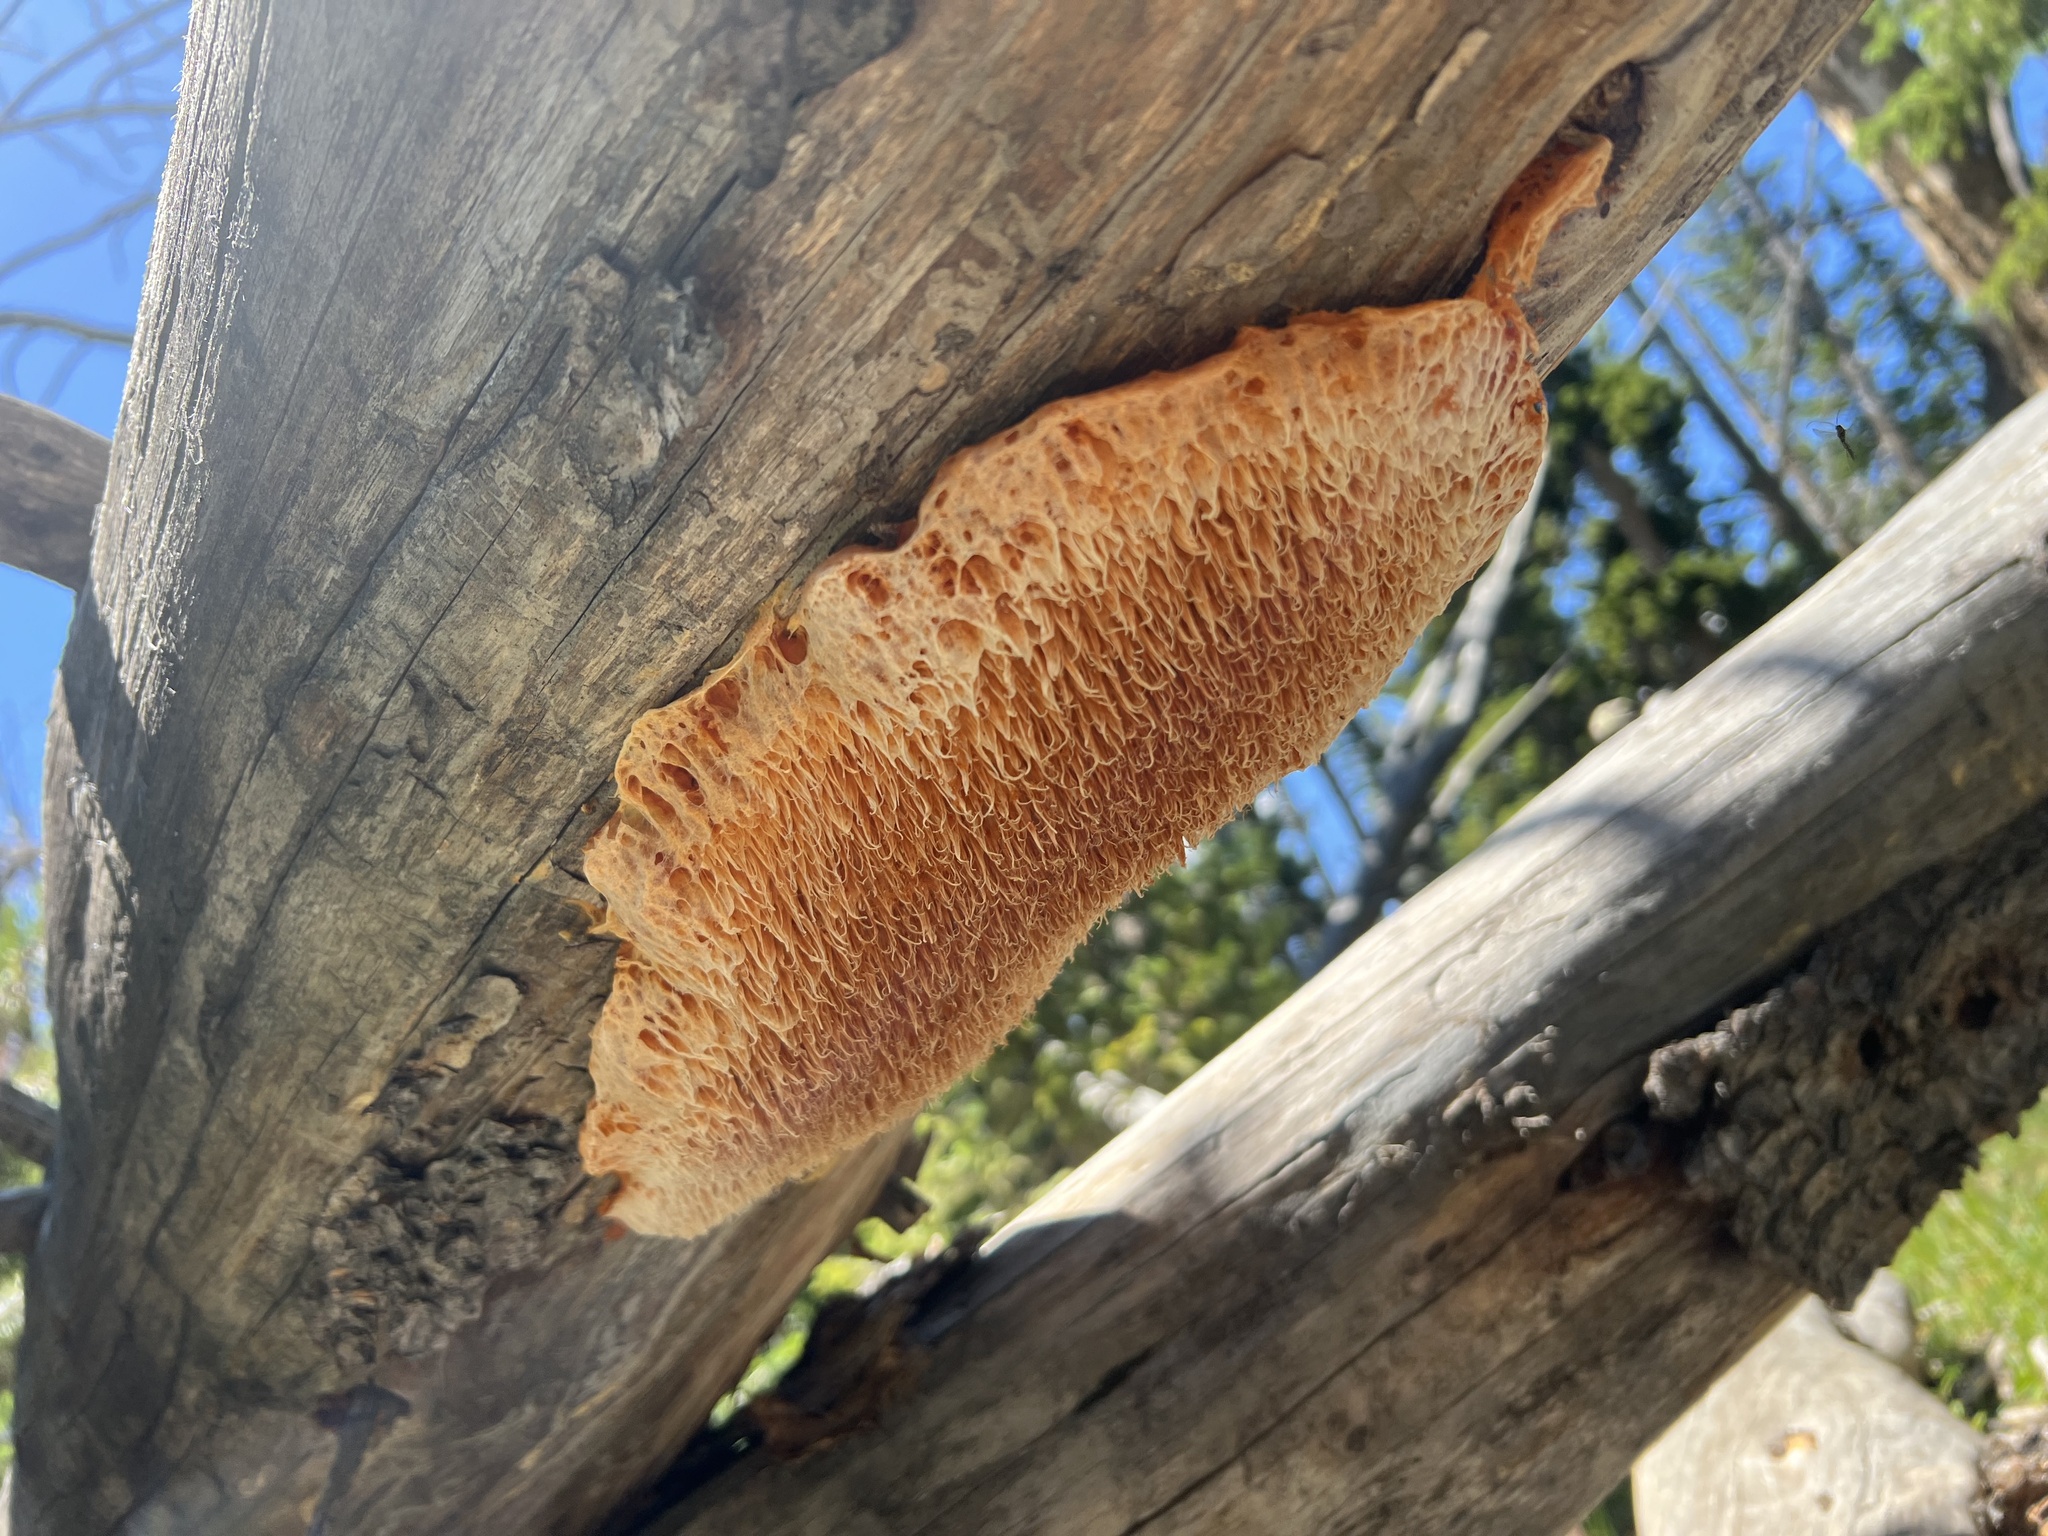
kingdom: Fungi
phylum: Basidiomycota
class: Agaricomycetes
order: Polyporales
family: Pycnoporellaceae
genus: Pycnoporellus
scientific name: Pycnoporellus alboluteus
